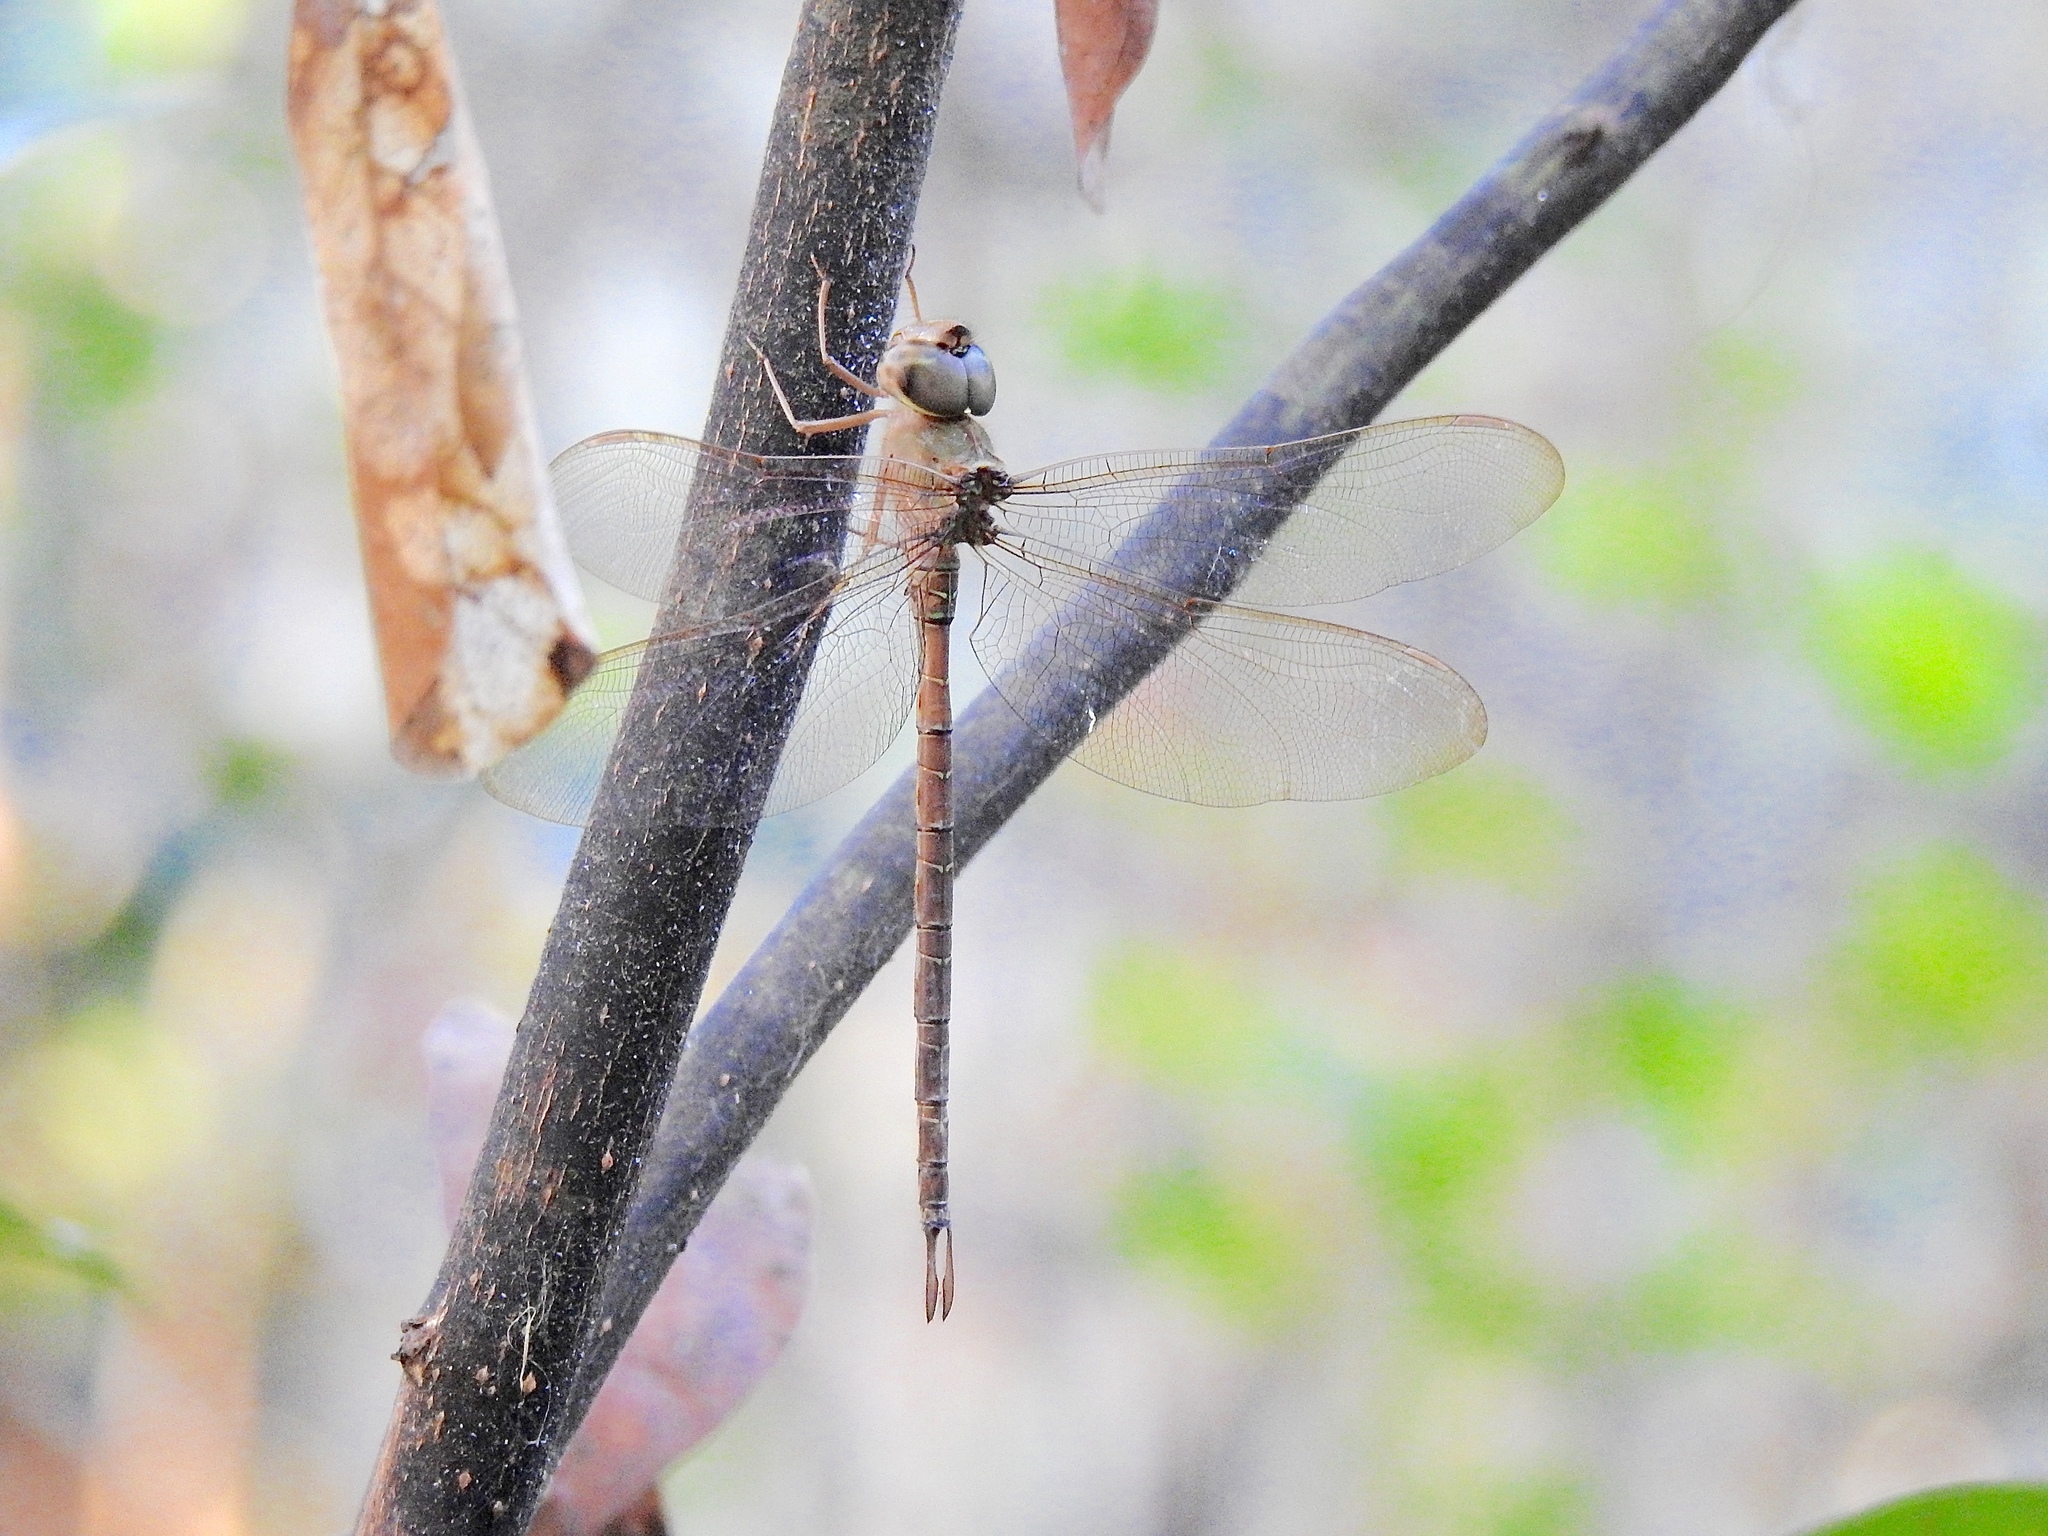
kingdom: Animalia
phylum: Arthropoda
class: Insecta
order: Odonata
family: Aeshnidae
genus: Gynacantha
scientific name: Gynacantha nervosa
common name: Twilight darner
